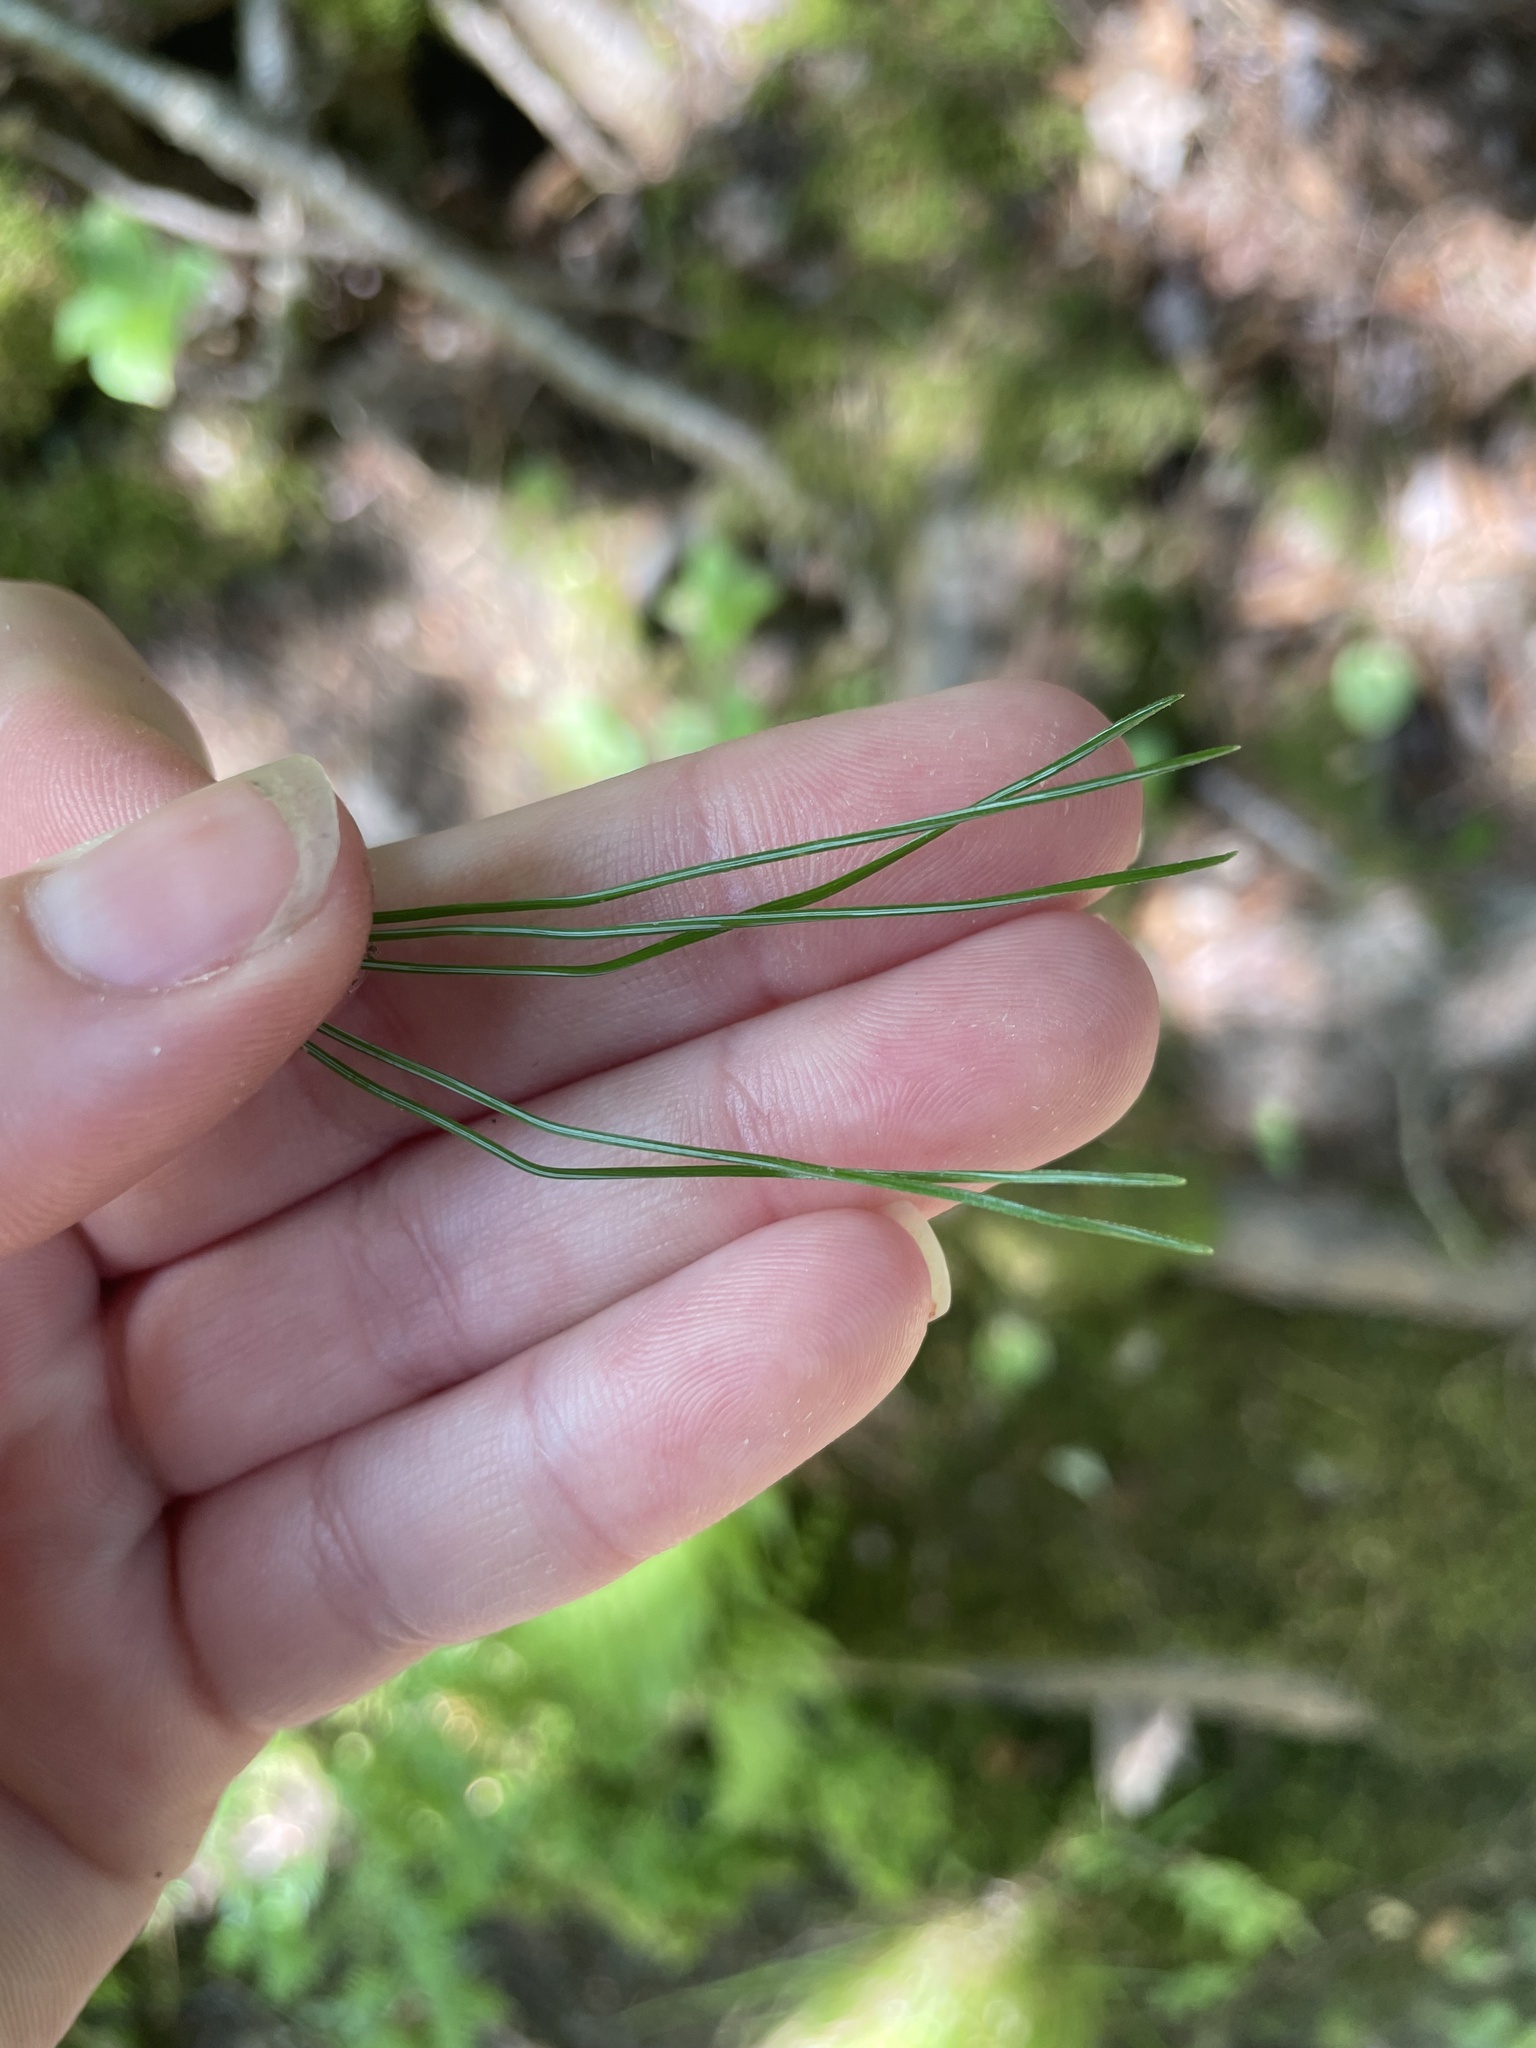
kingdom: Plantae
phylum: Tracheophyta
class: Pinopsida
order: Pinales
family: Pinaceae
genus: Pinus
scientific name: Pinus strobus
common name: Weymouth pine
